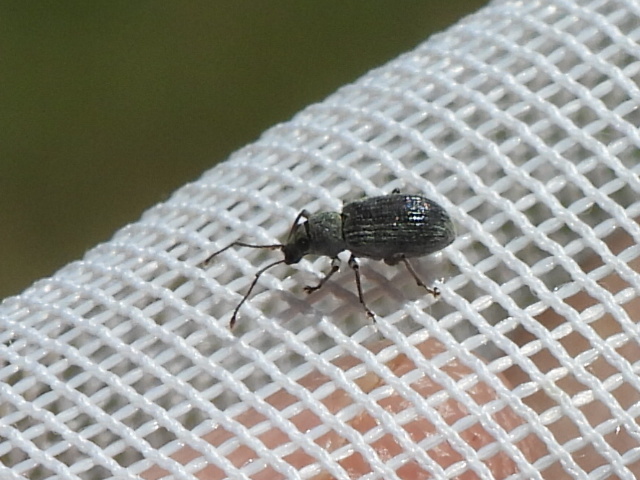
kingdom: Animalia
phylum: Arthropoda
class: Insecta
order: Coleoptera
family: Curculionidae
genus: Cyrtepistomus
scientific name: Cyrtepistomus castaneus
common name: Weevil
